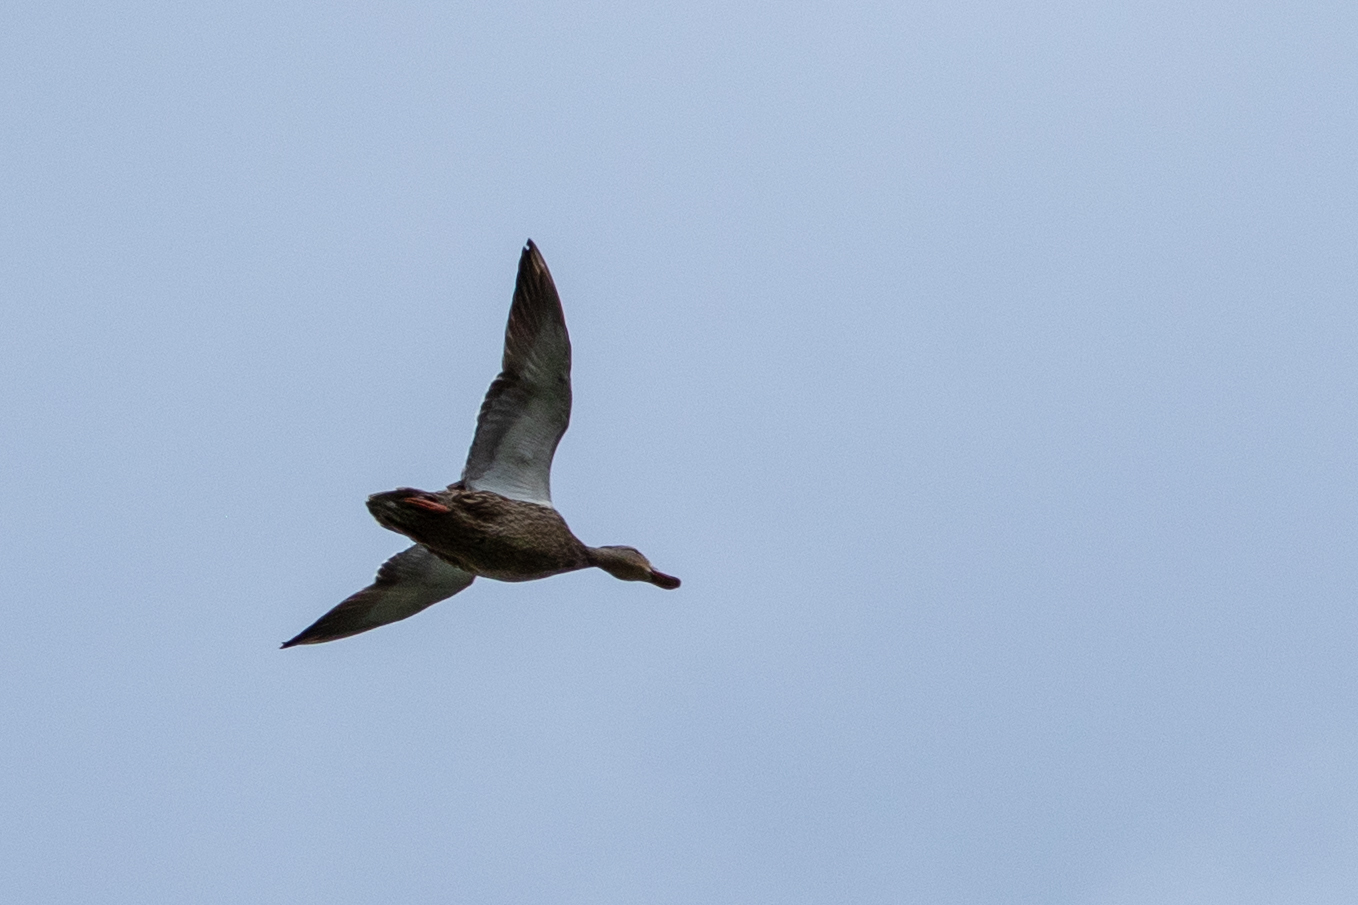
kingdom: Animalia
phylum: Chordata
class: Aves
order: Anseriformes
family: Anatidae
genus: Anas
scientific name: Anas platyrhynchos
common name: Mallard
